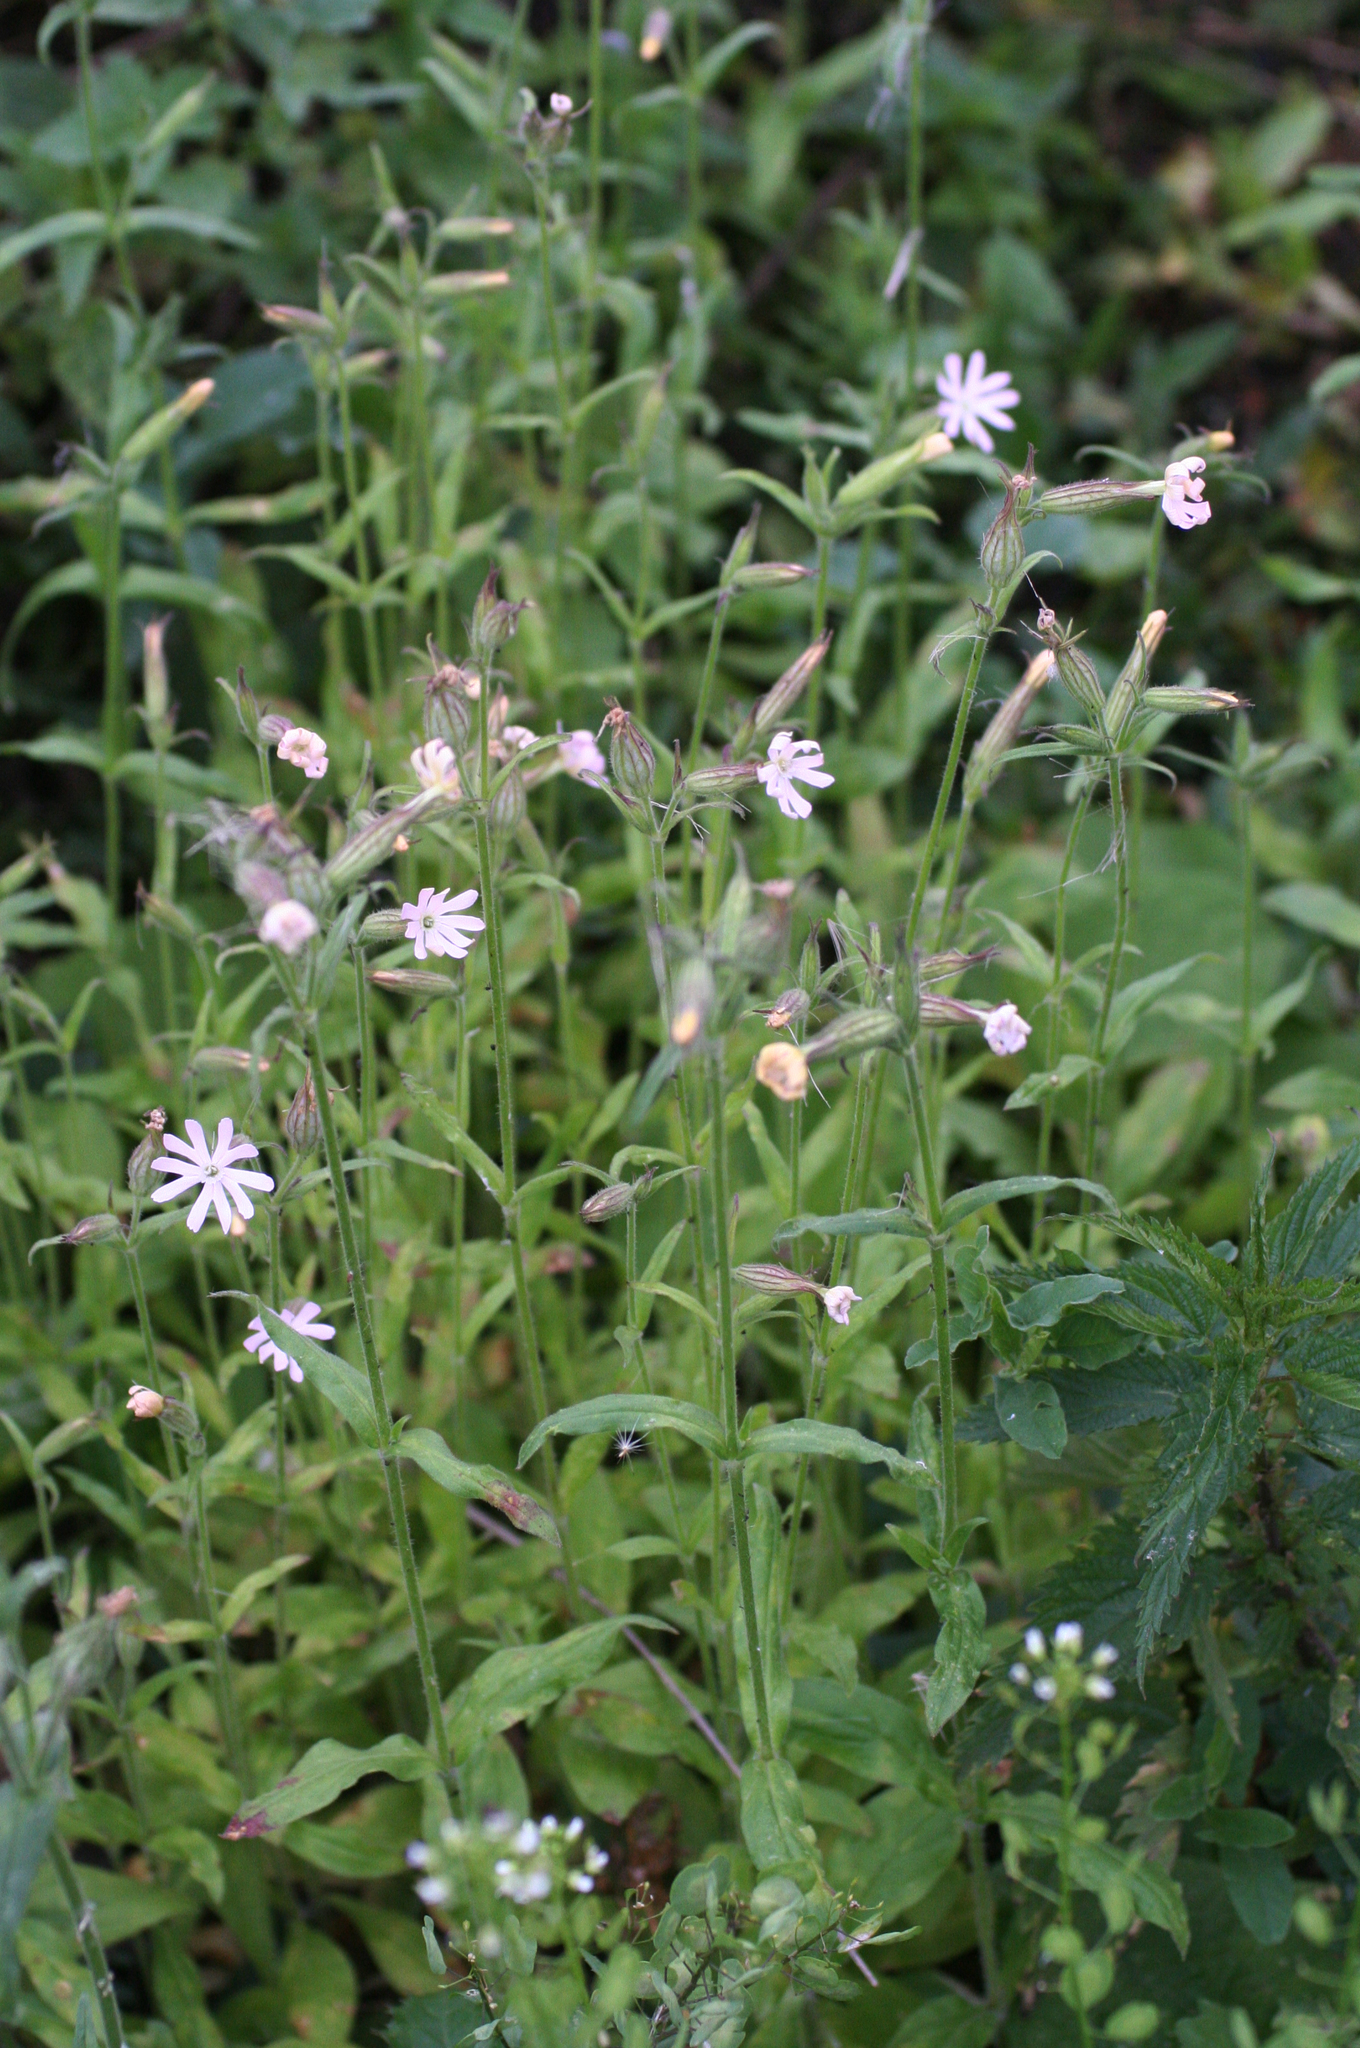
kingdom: Plantae
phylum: Tracheophyta
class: Magnoliopsida
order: Caryophyllales
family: Caryophyllaceae
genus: Silene
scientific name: Silene noctiflora
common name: Night-flowering catchfly
